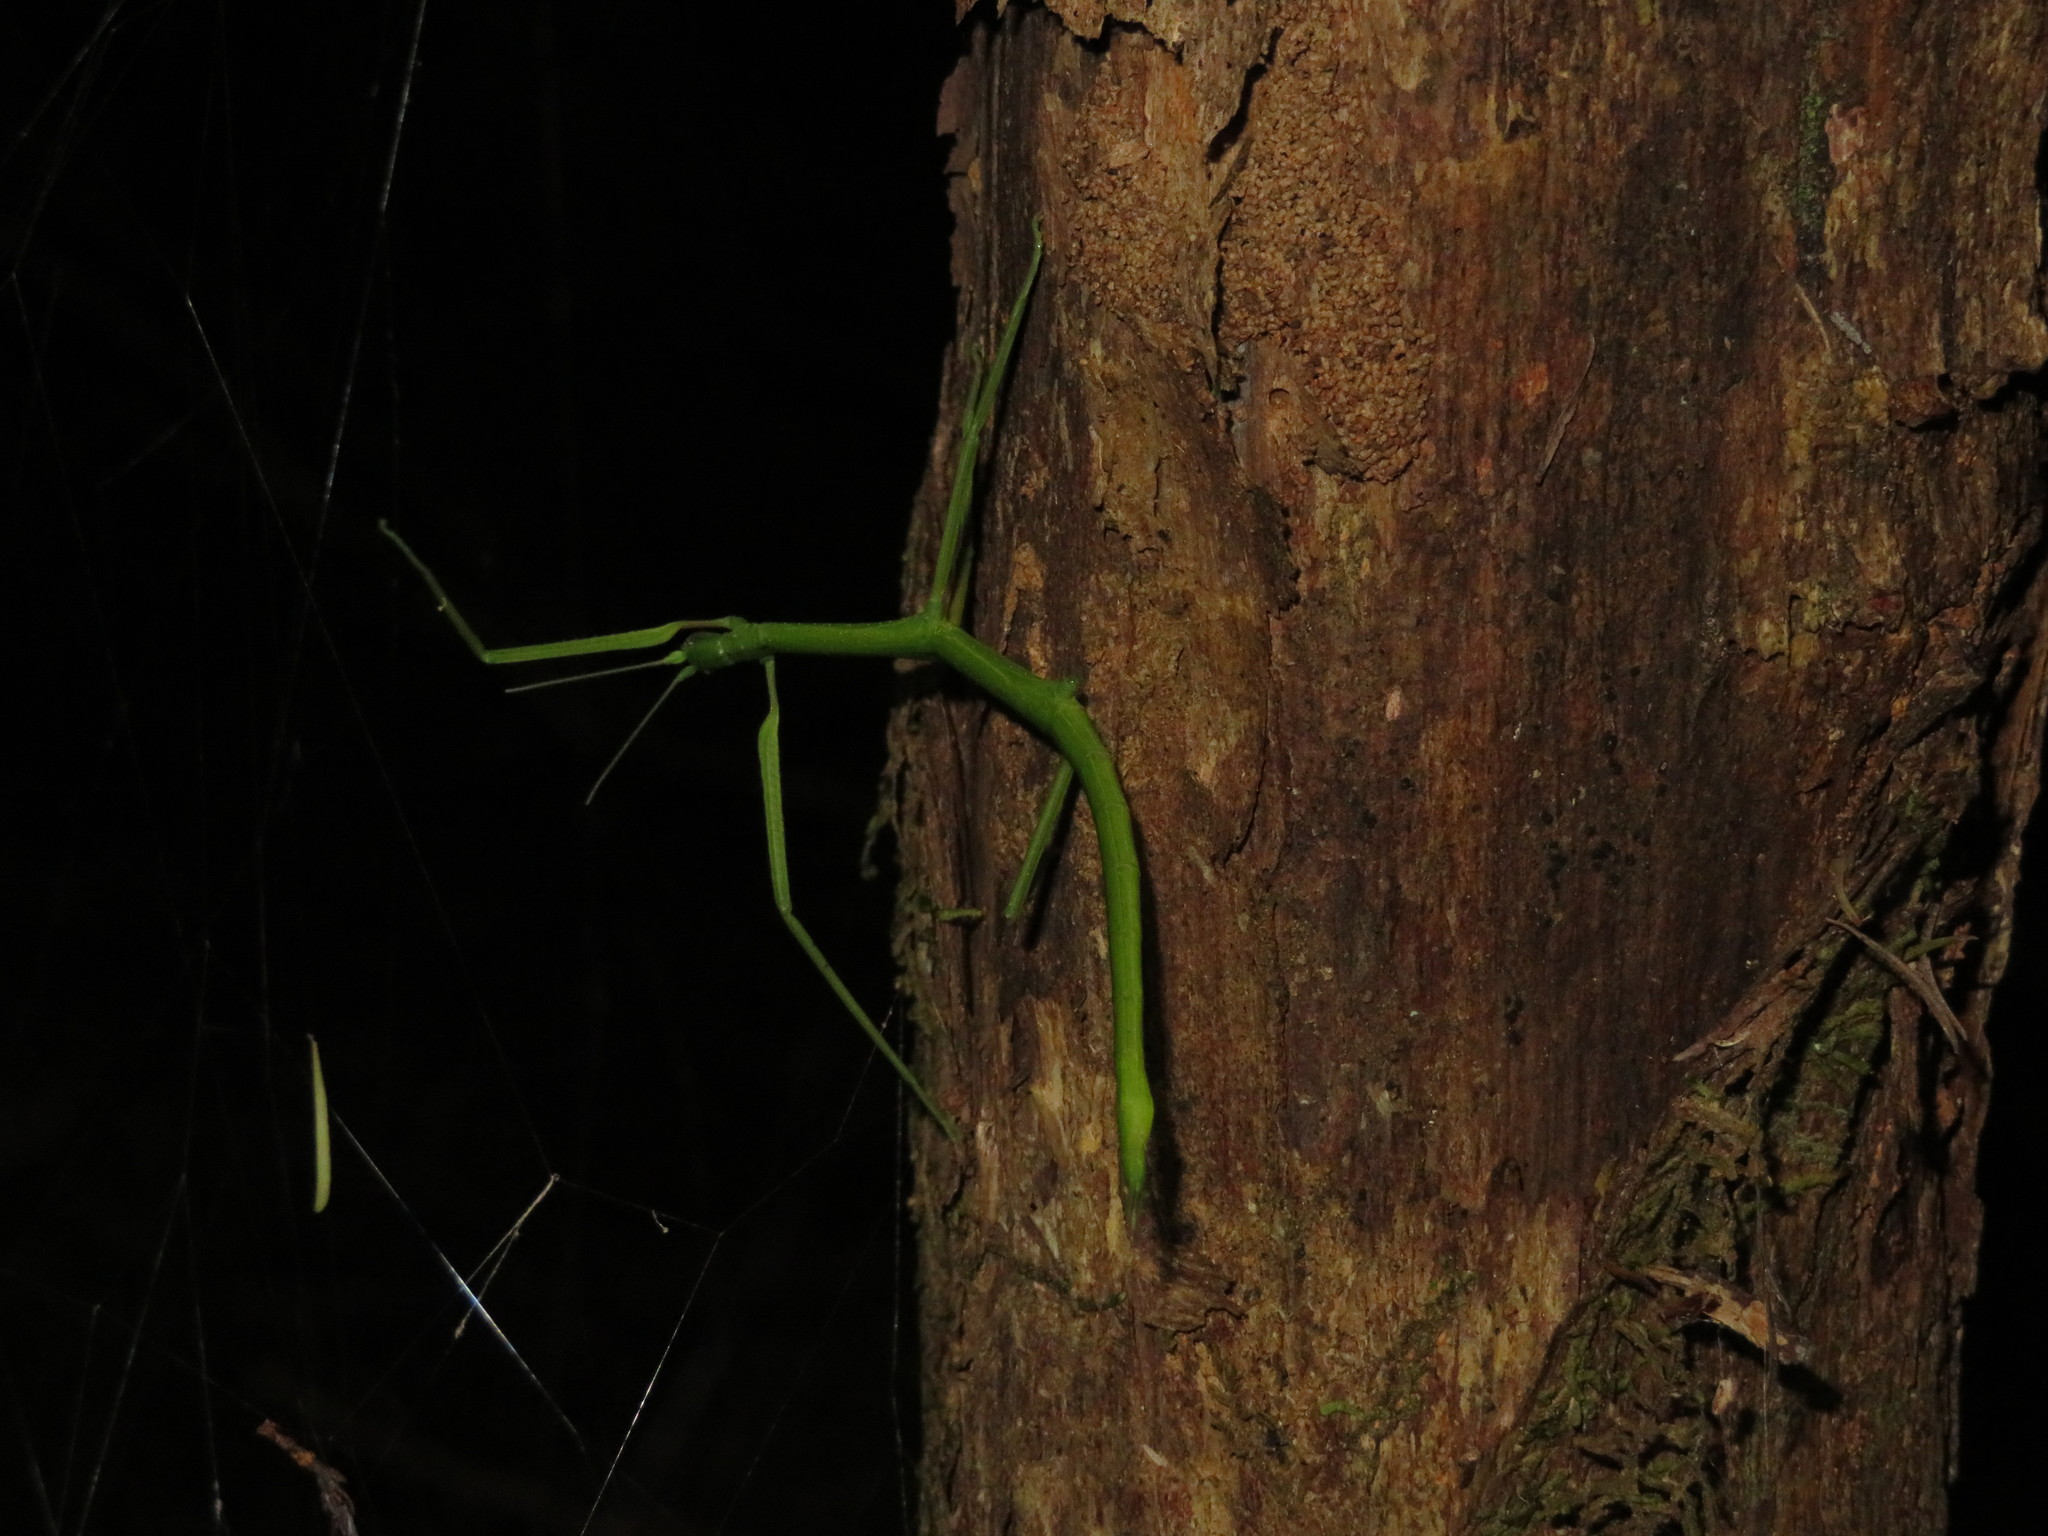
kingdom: Animalia
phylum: Arthropoda
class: Insecta
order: Phasmida
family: Phasmatidae
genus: Clitarchus
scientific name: Clitarchus hookeri
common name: Smooth stick insect
